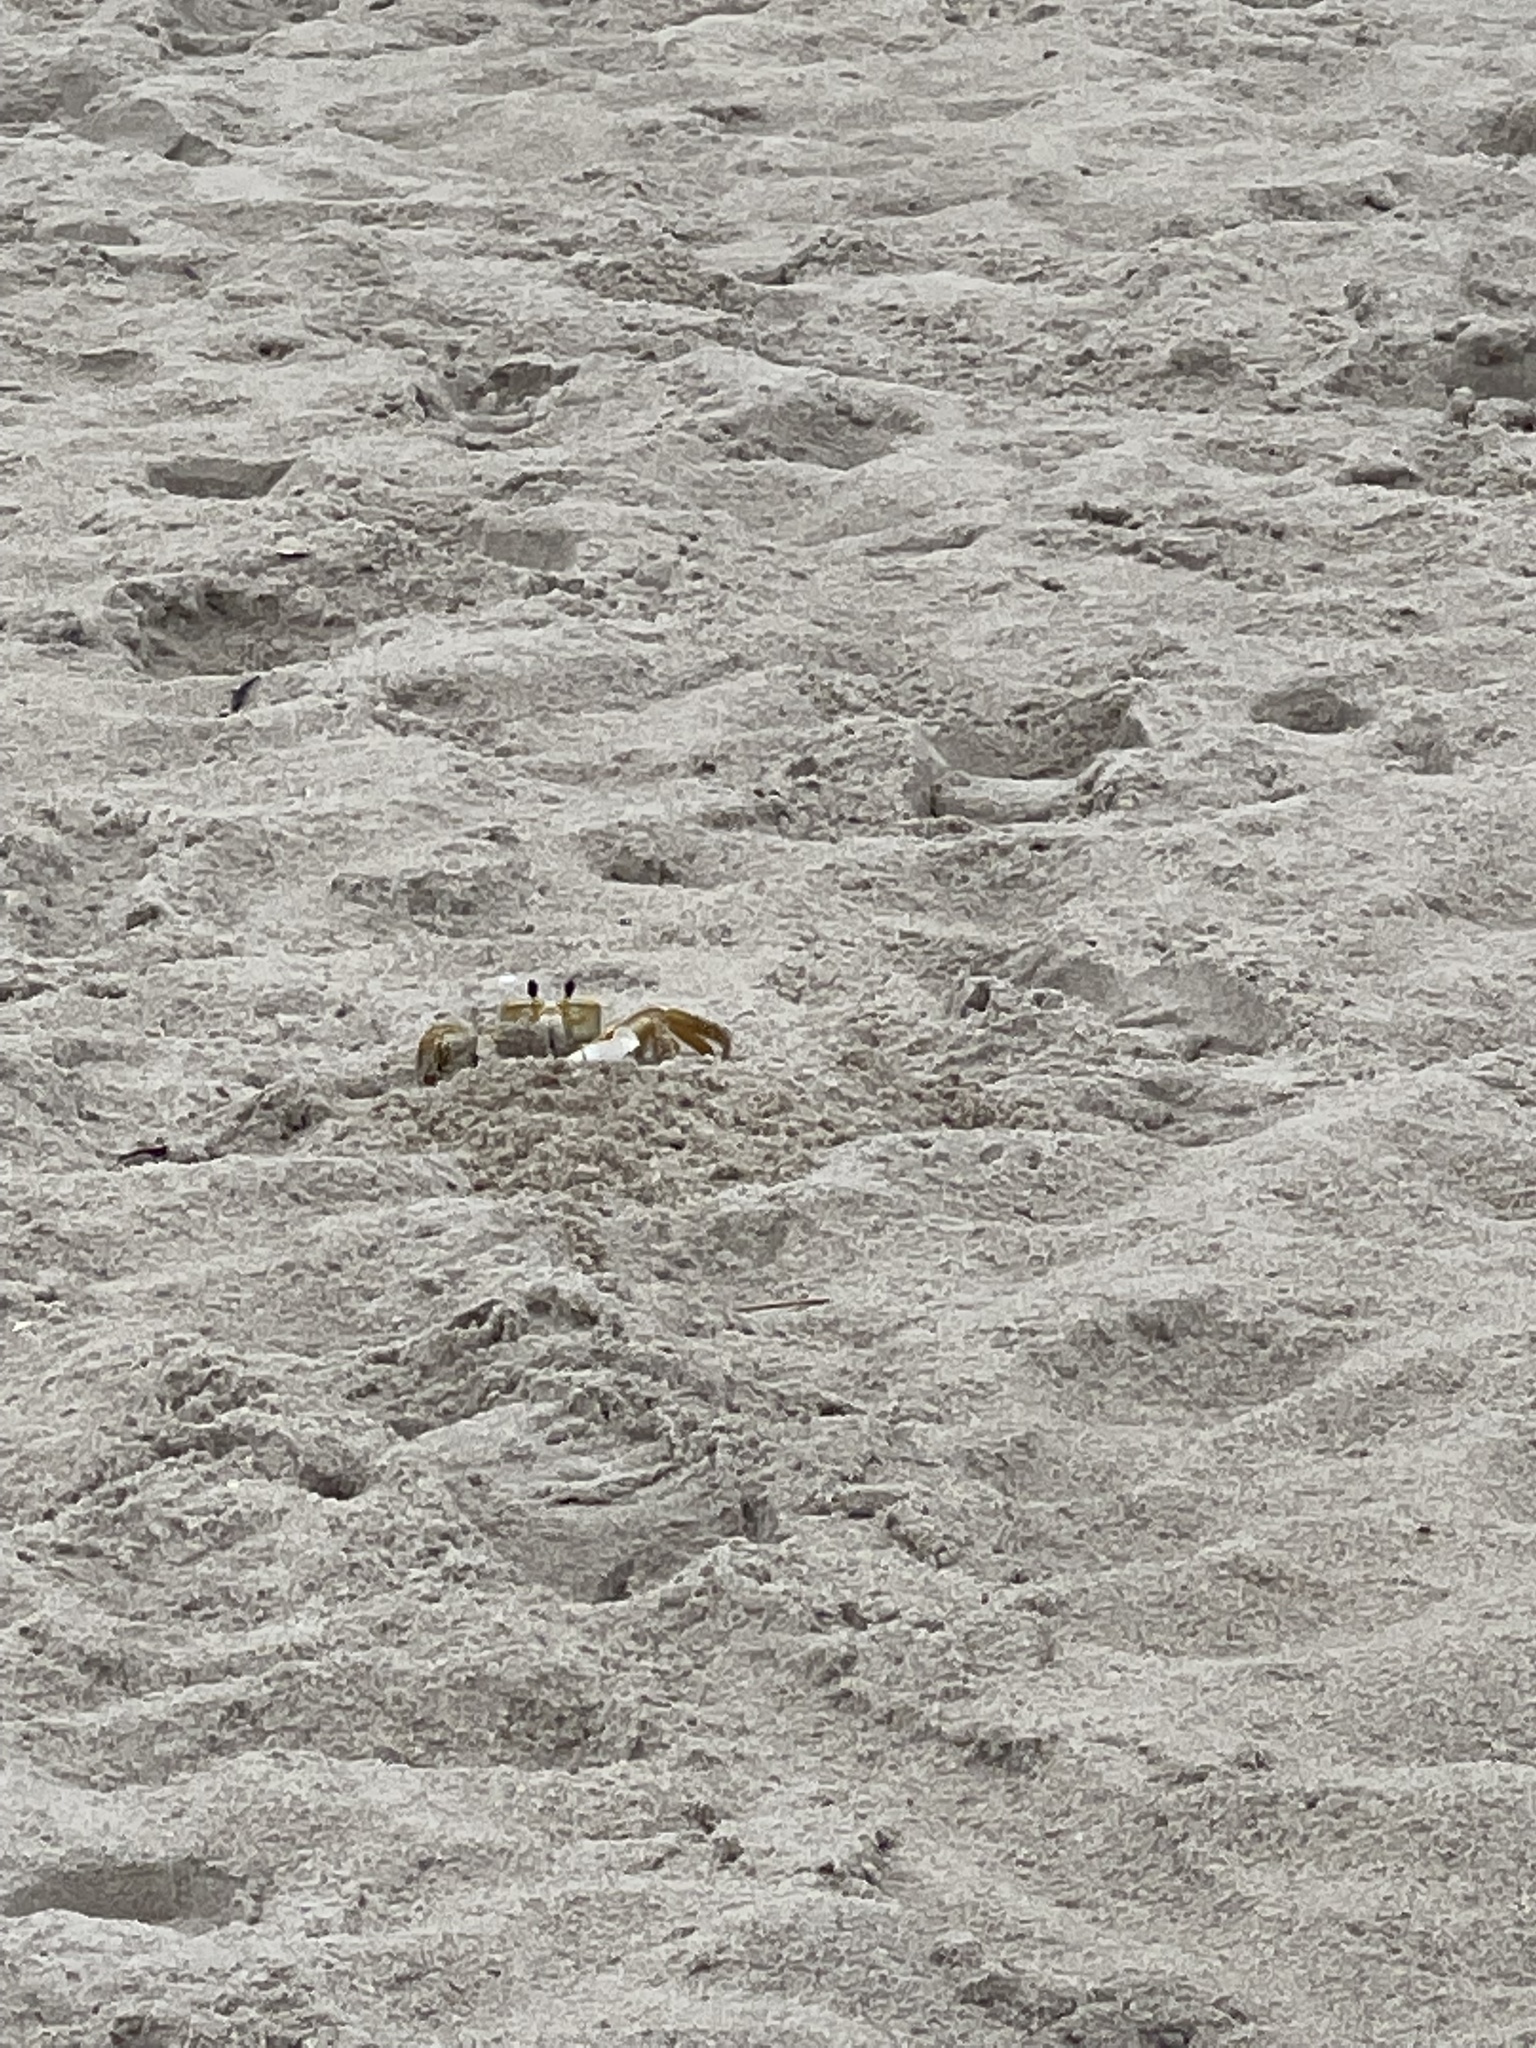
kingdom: Animalia
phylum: Arthropoda
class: Malacostraca
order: Decapoda
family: Ocypodidae
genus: Ocypode
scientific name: Ocypode quadrata
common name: Ghost crab
